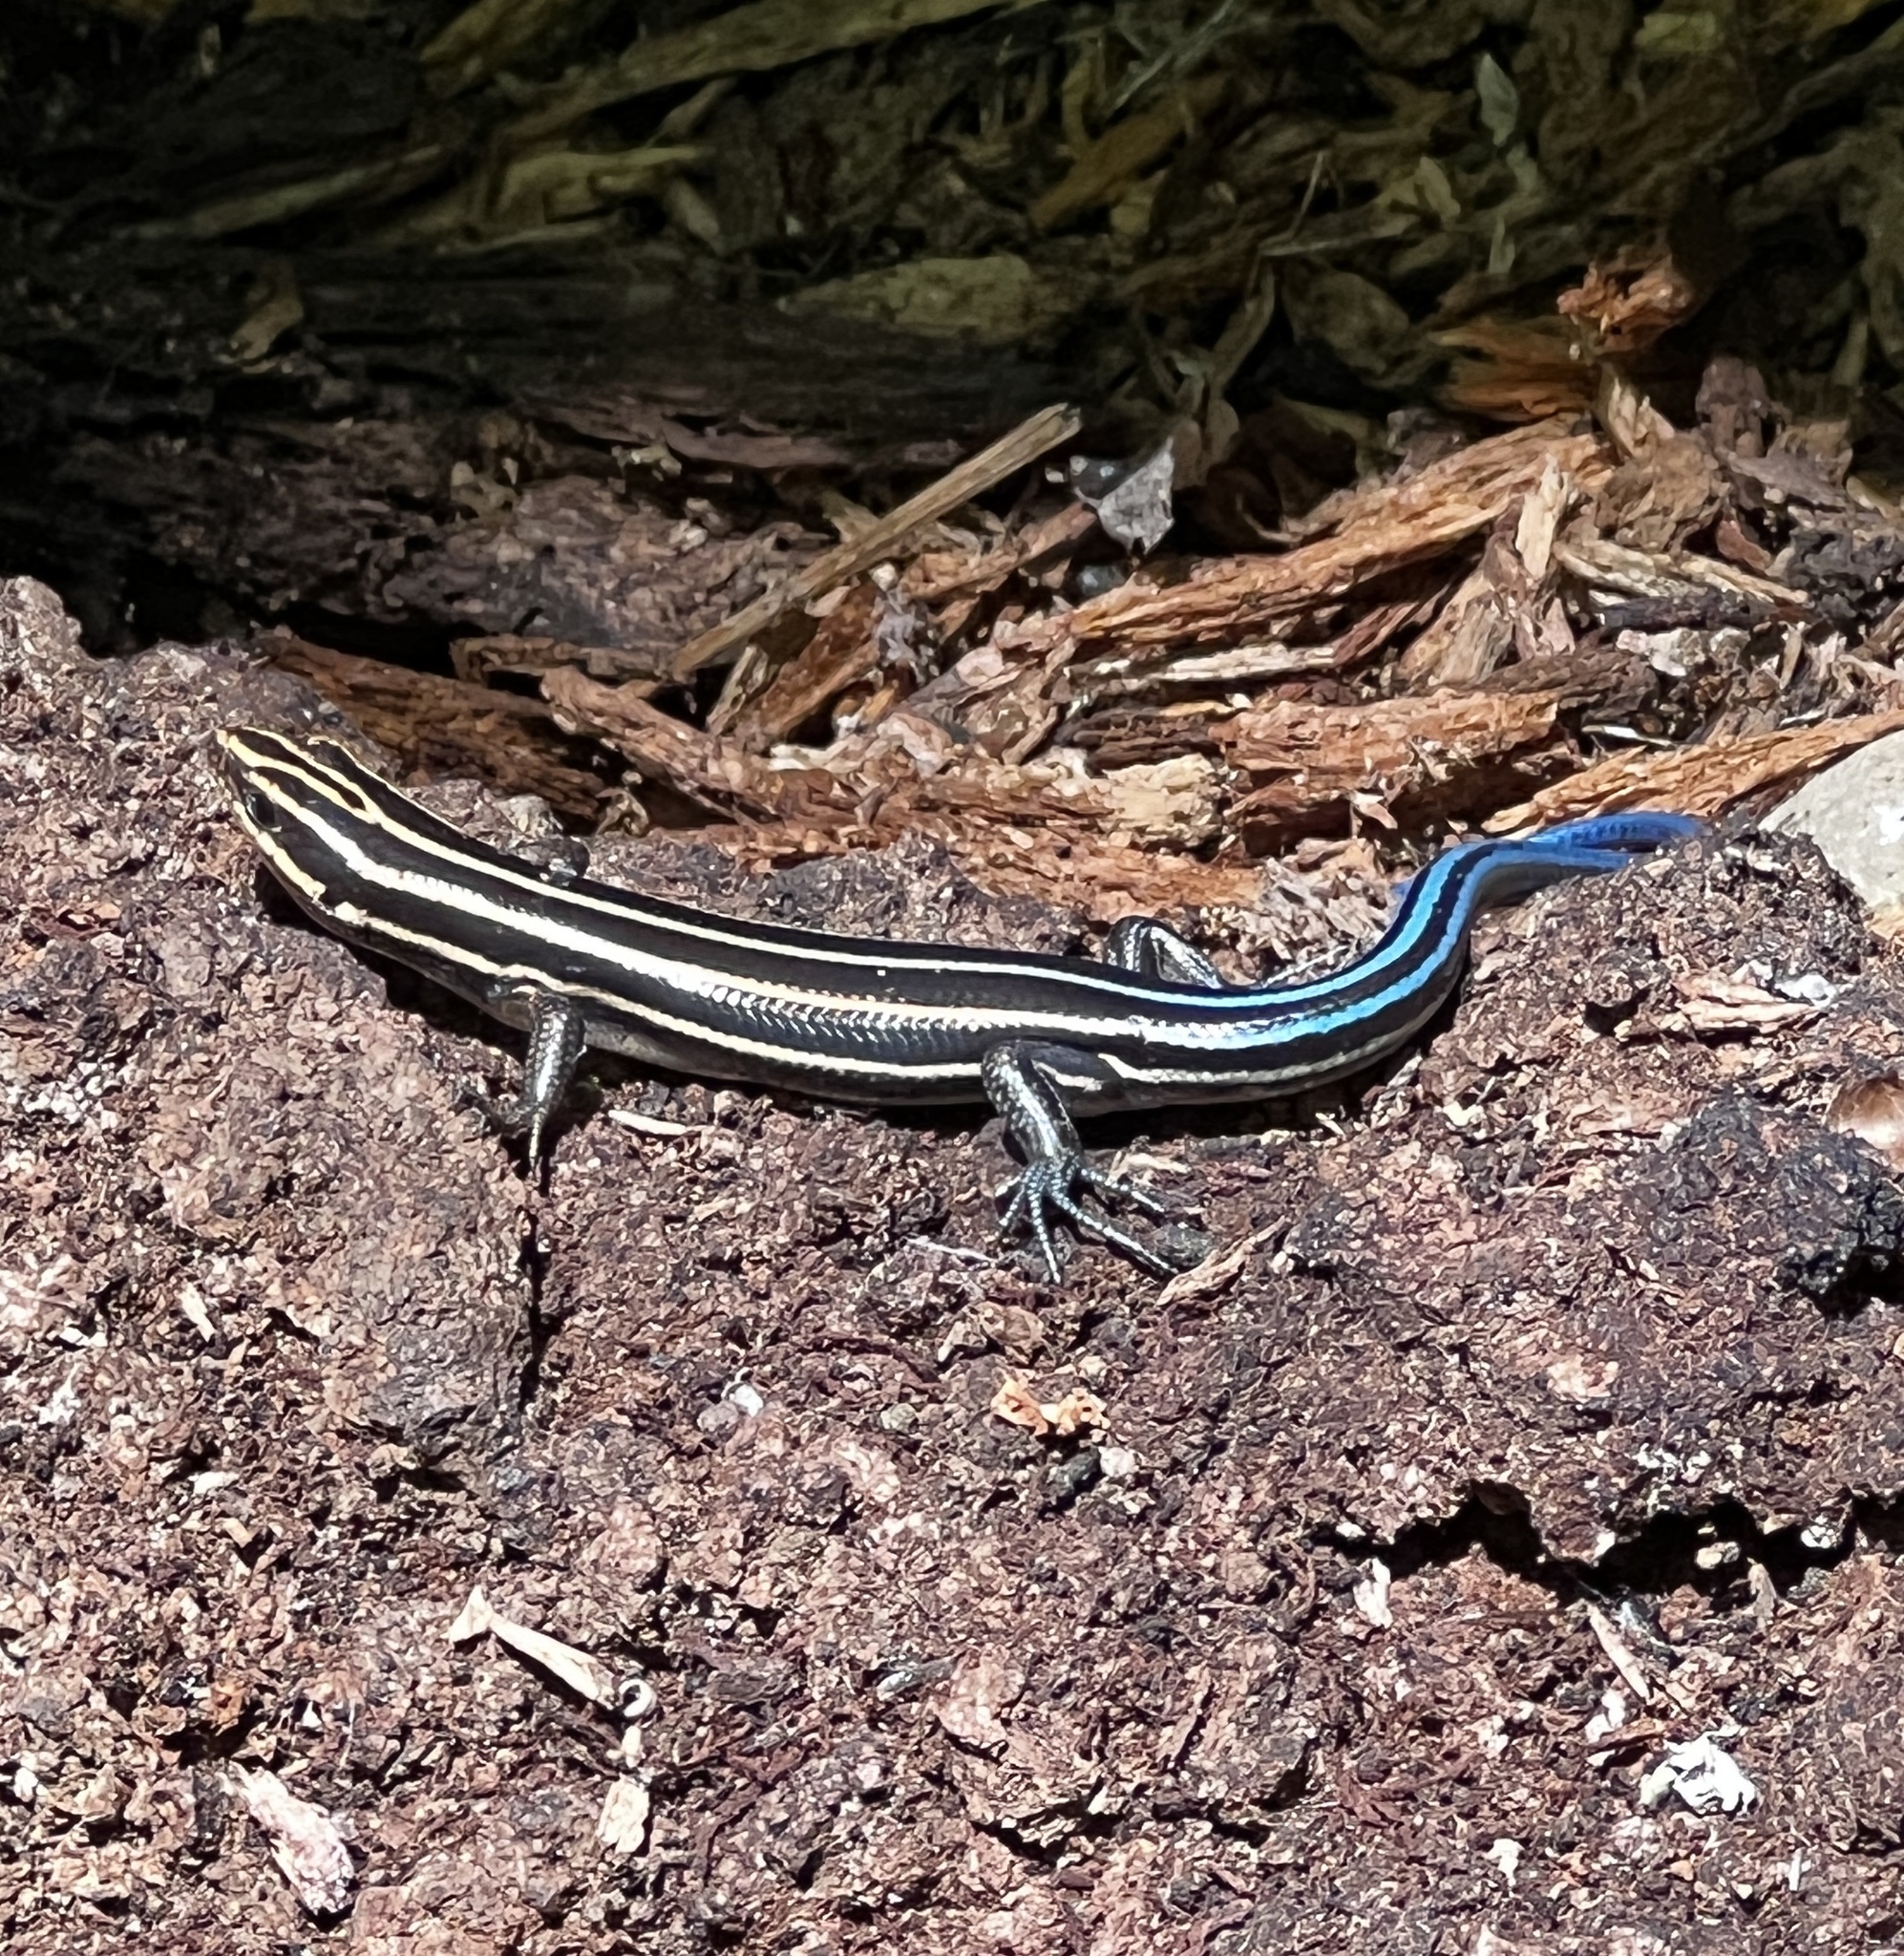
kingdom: Animalia
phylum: Chordata
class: Squamata
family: Scincidae
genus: Plestiodon
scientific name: Plestiodon fasciatus
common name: Five-lined skink
